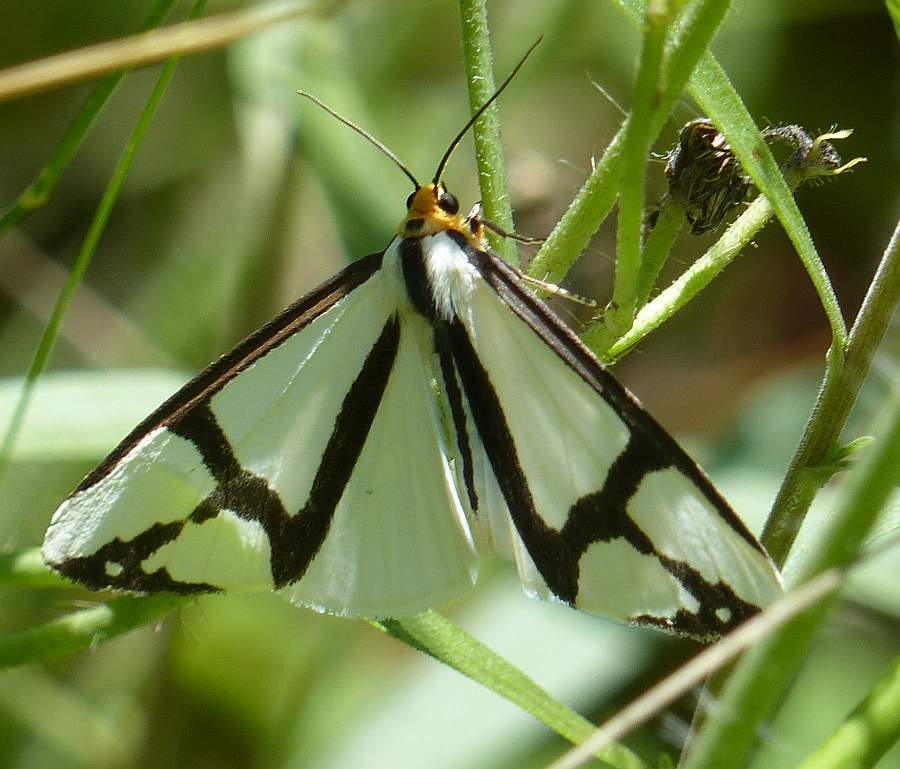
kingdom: Animalia
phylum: Arthropoda
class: Insecta
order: Lepidoptera
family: Erebidae
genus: Haploa
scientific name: Haploa contigua
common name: Neighbor moth
